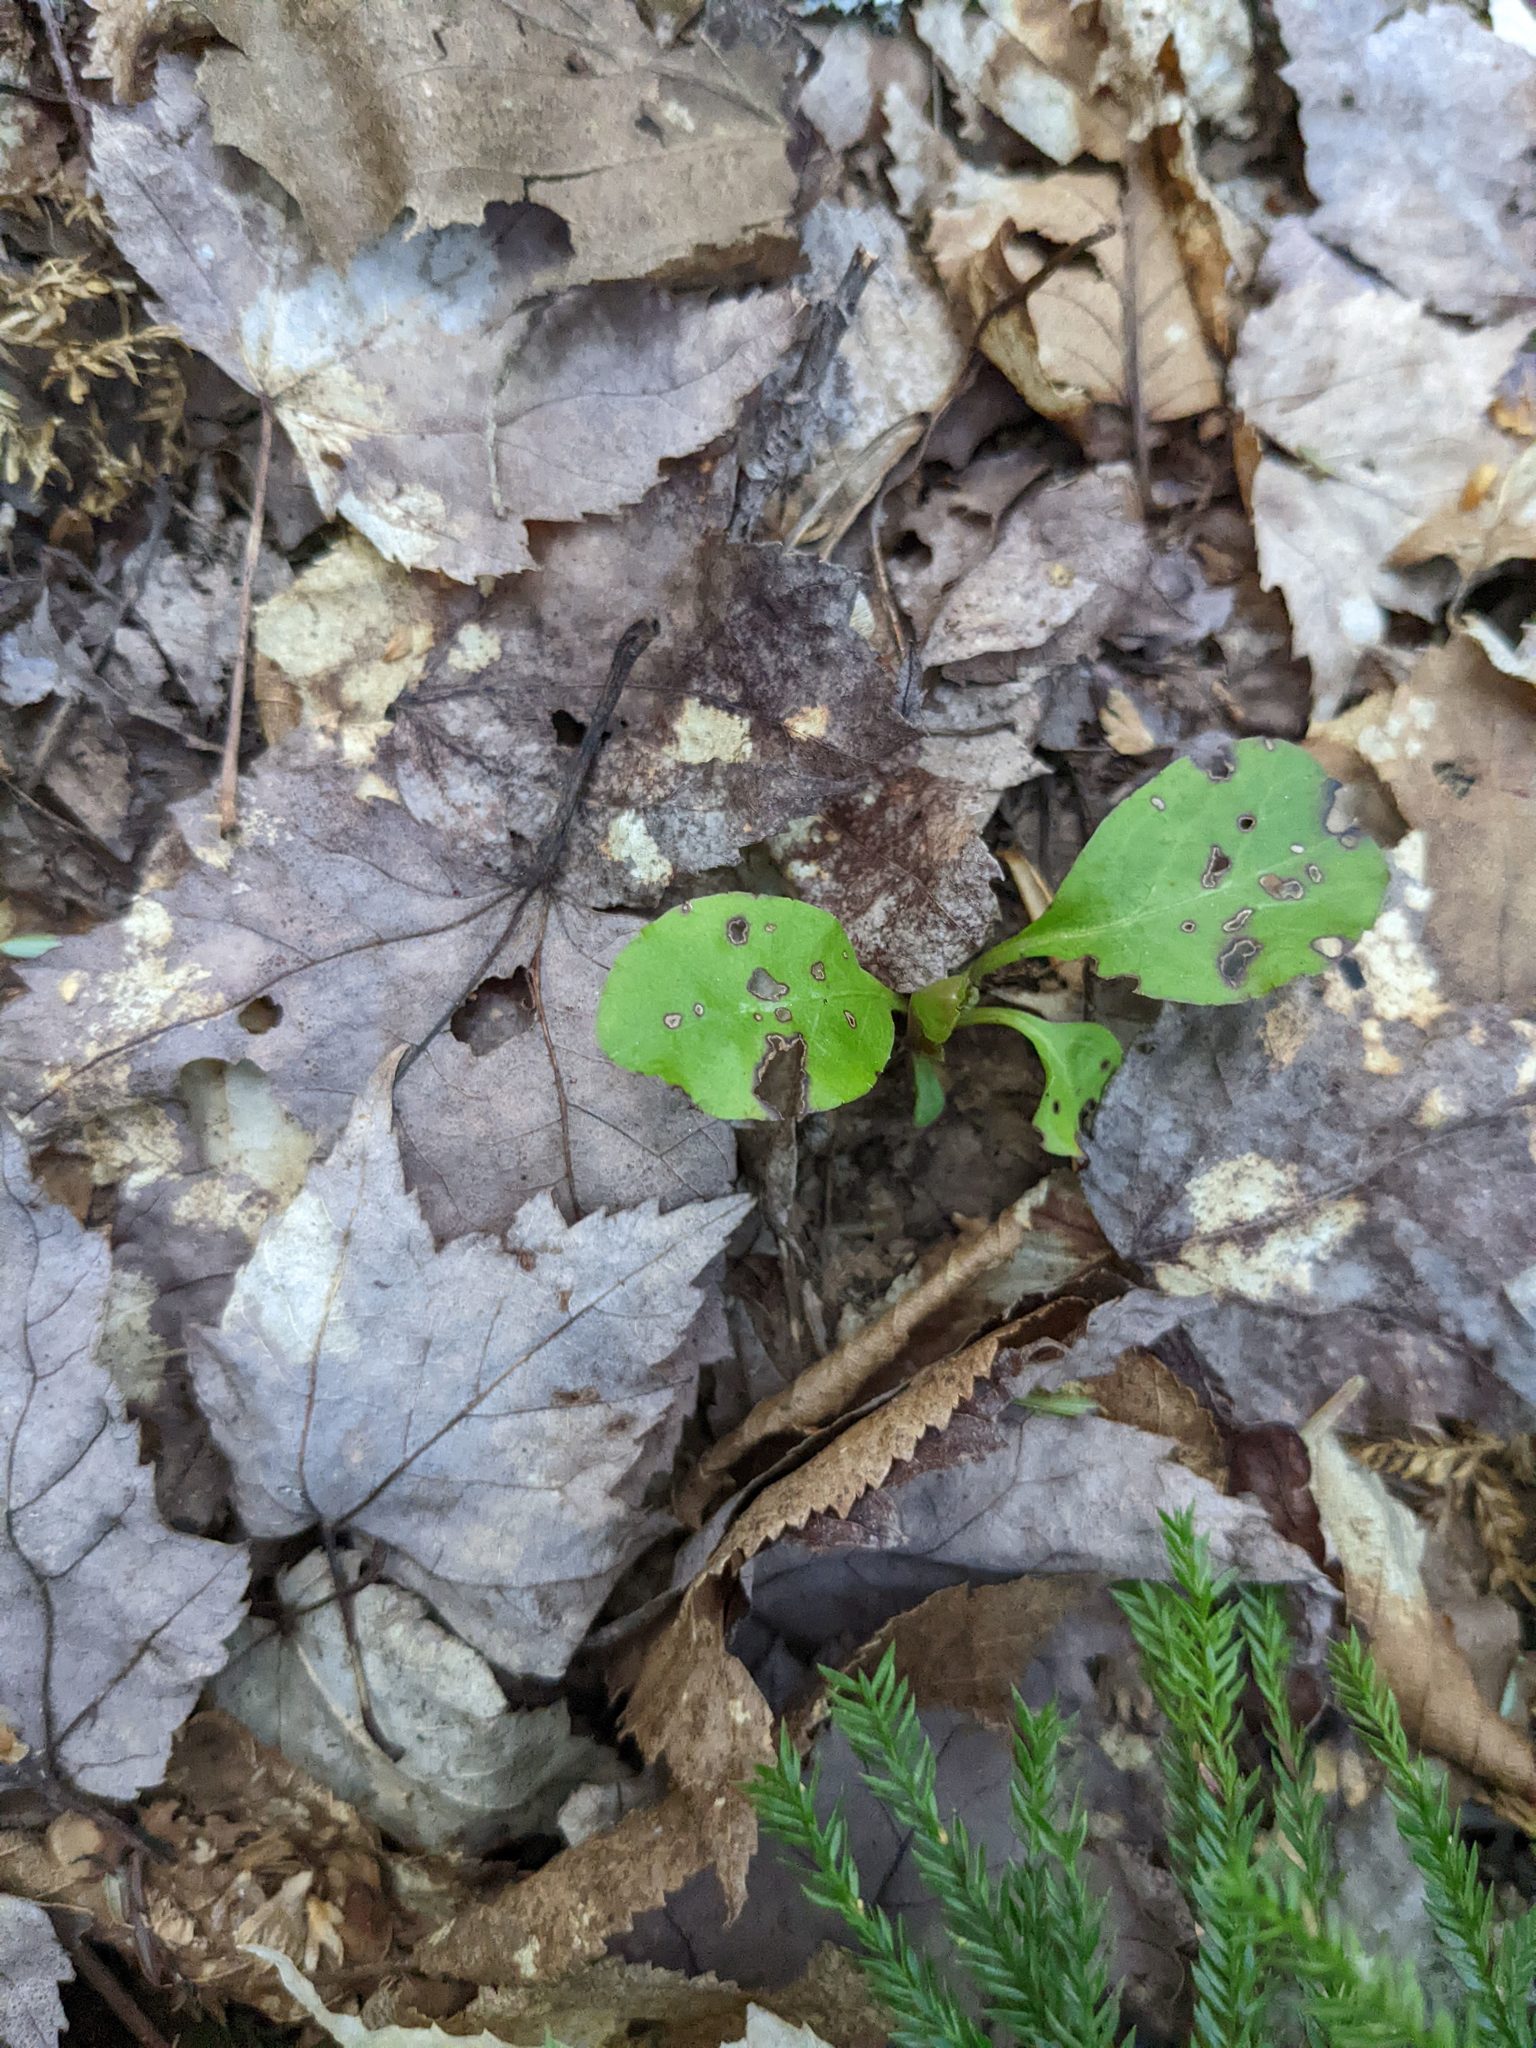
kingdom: Plantae
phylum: Tracheophyta
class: Magnoliopsida
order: Ericales
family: Ericaceae
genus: Pyrola
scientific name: Pyrola elliptica
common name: Shinleaf
